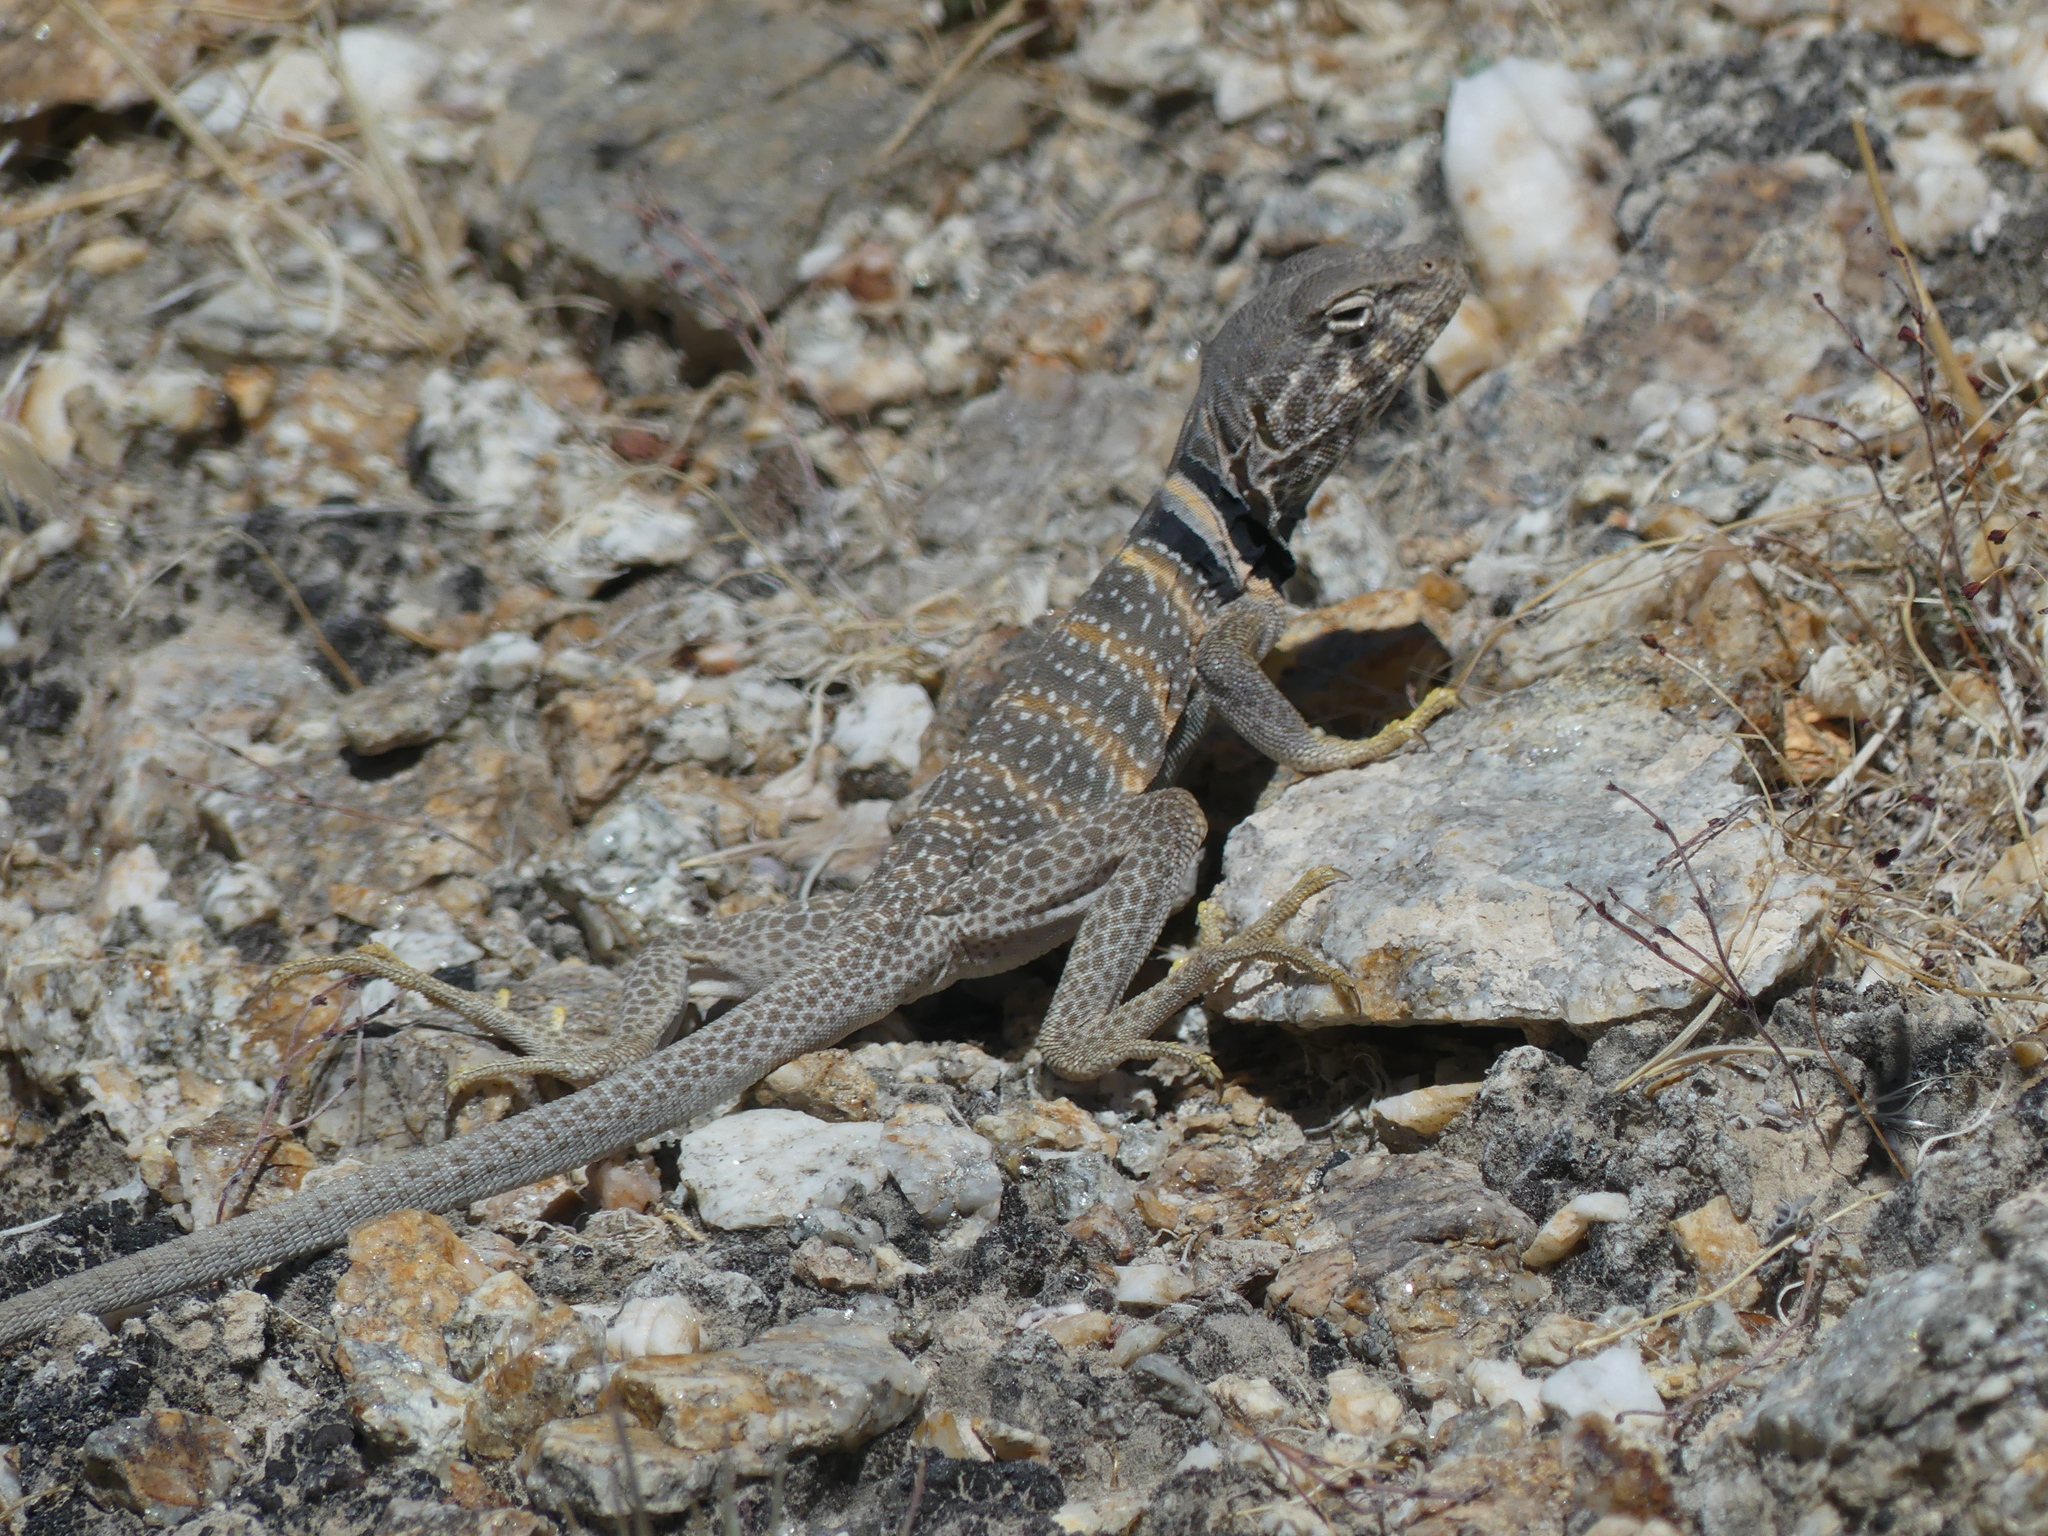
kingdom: Animalia
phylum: Chordata
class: Squamata
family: Crotaphytidae
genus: Crotaphytus
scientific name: Crotaphytus bicinctores
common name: Mojave black-collared lizard
